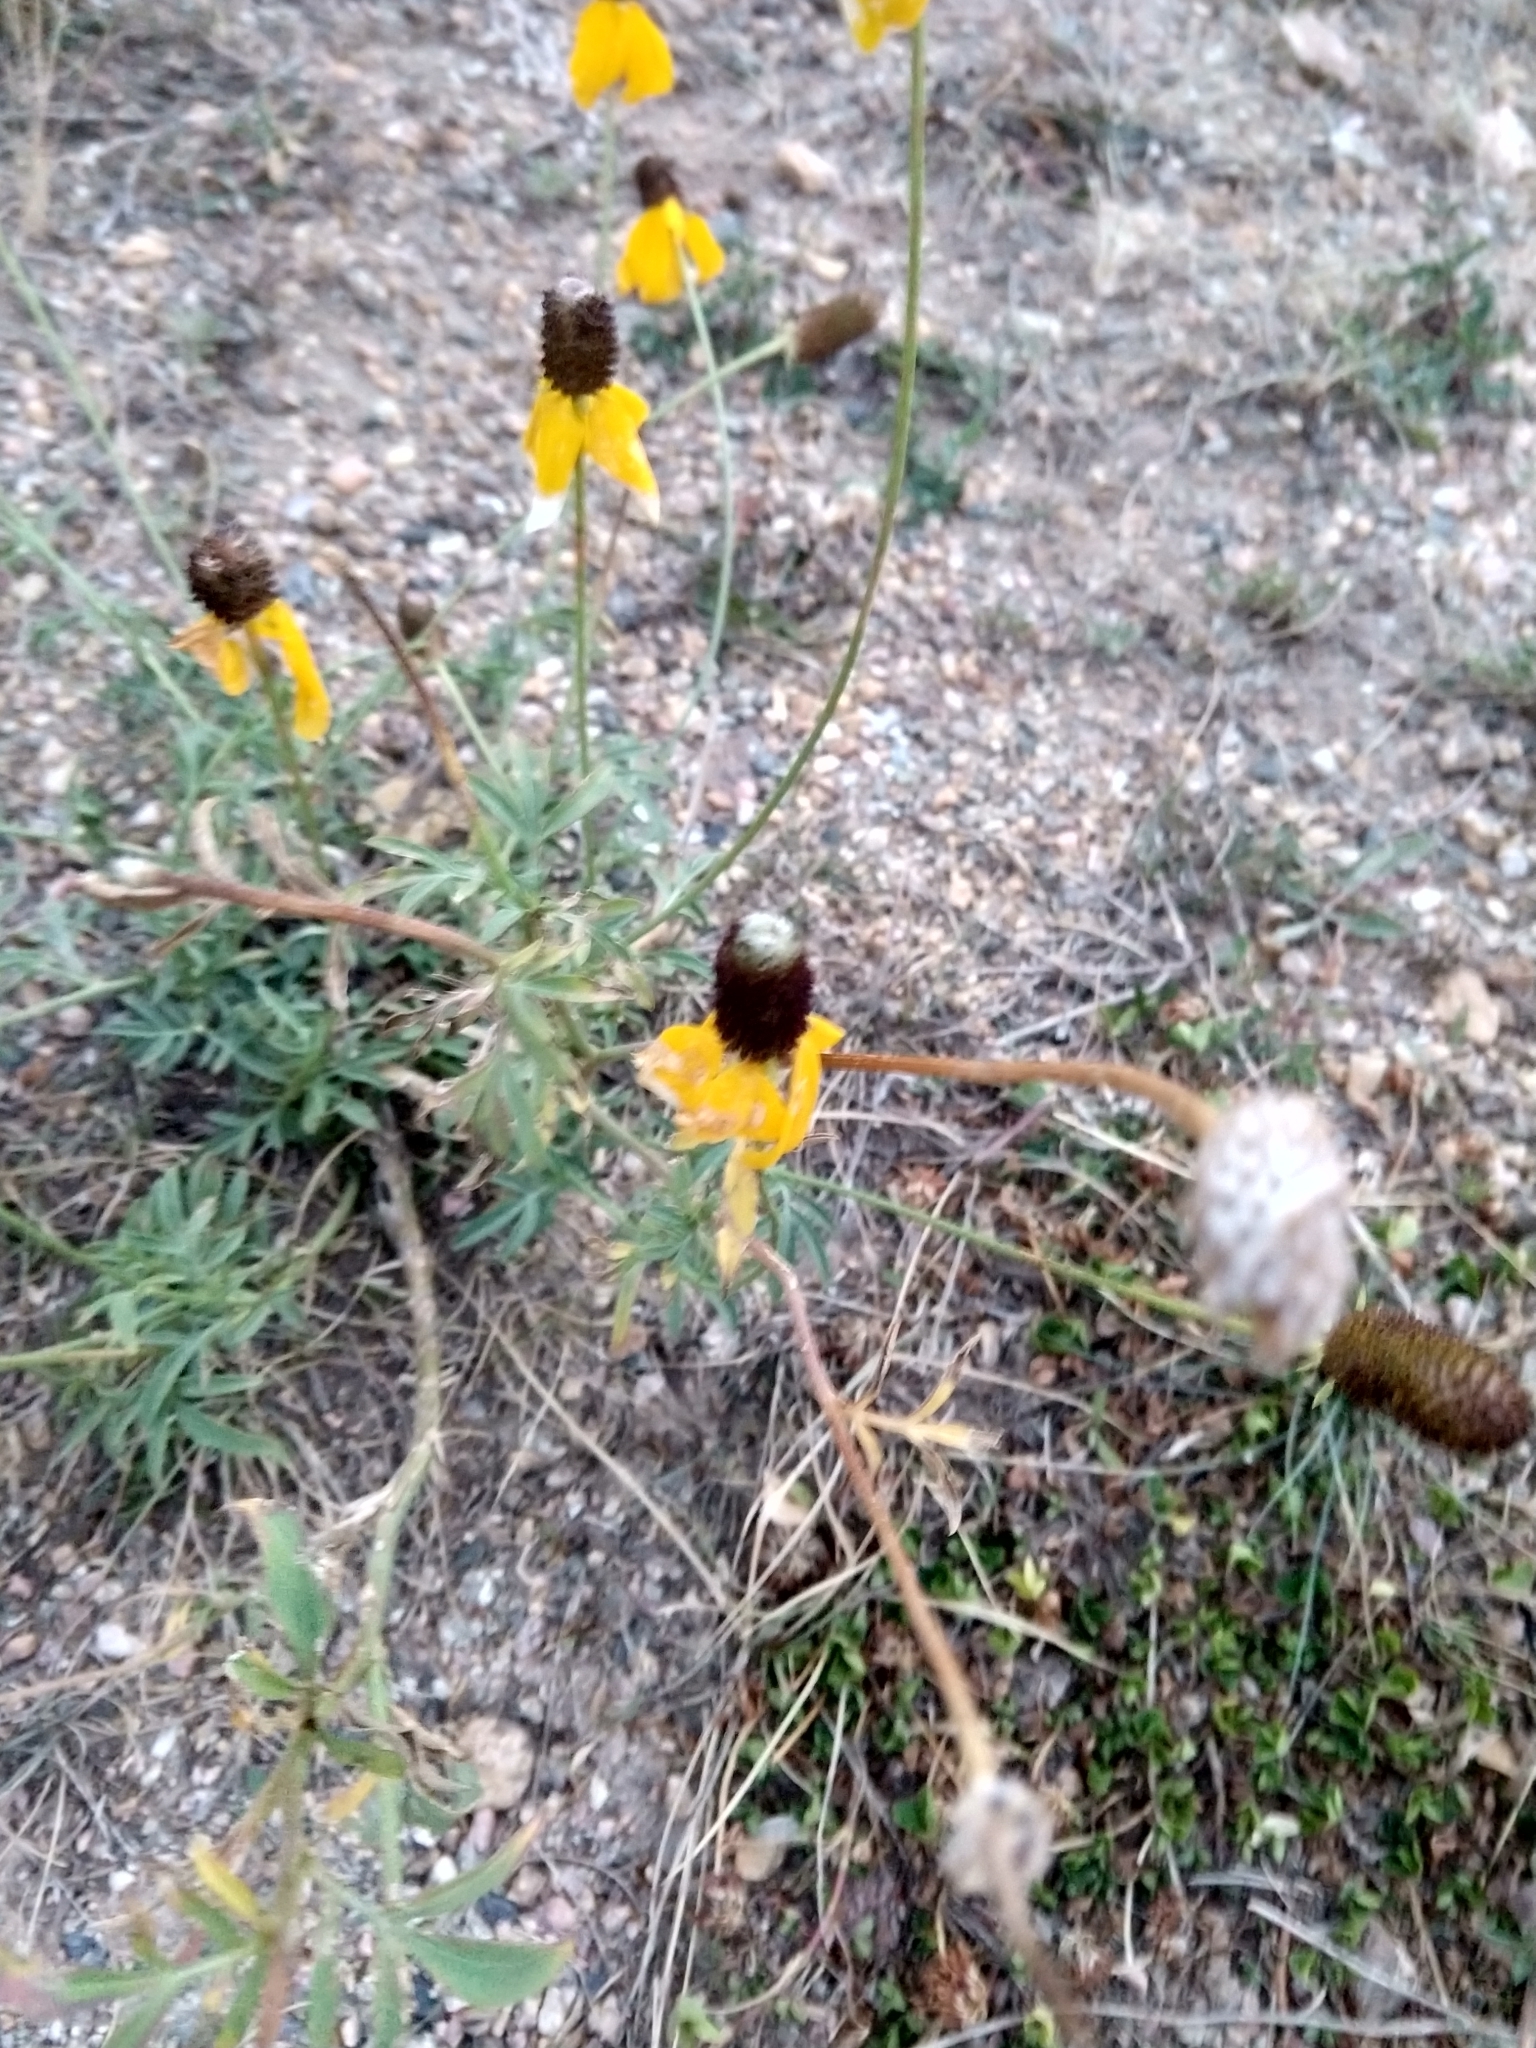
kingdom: Plantae
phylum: Tracheophyta
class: Magnoliopsida
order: Asterales
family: Asteraceae
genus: Ratibida
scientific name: Ratibida columnifera
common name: Prairie coneflower
